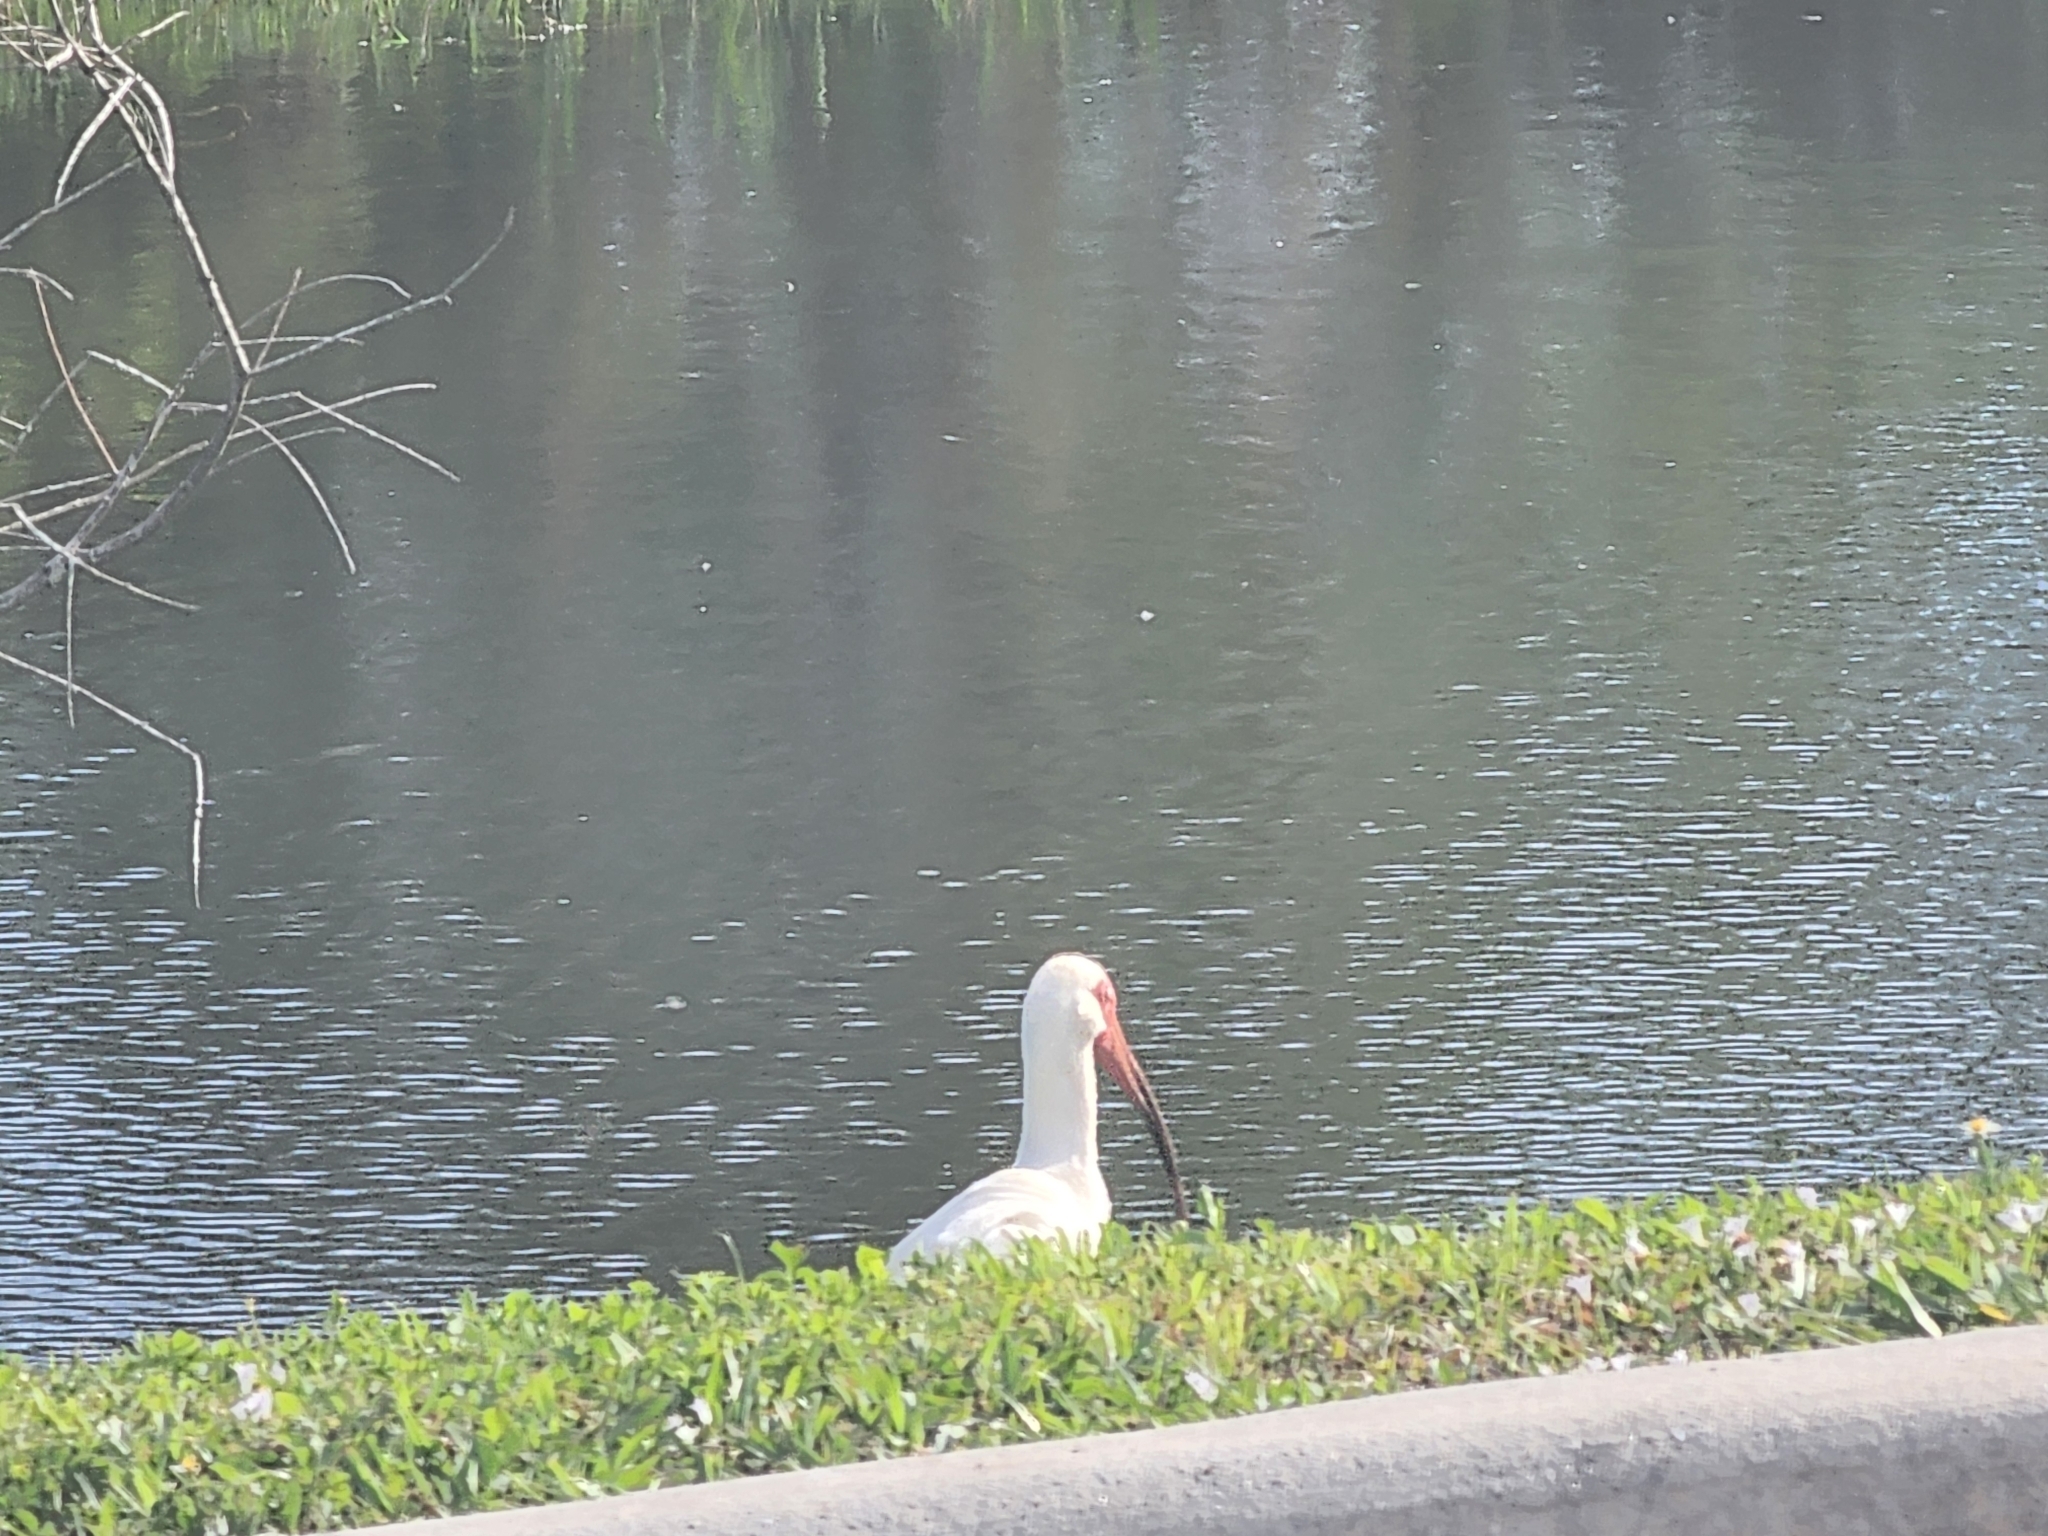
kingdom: Animalia
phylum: Chordata
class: Aves
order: Pelecaniformes
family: Threskiornithidae
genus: Eudocimus
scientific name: Eudocimus albus
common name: White ibis
